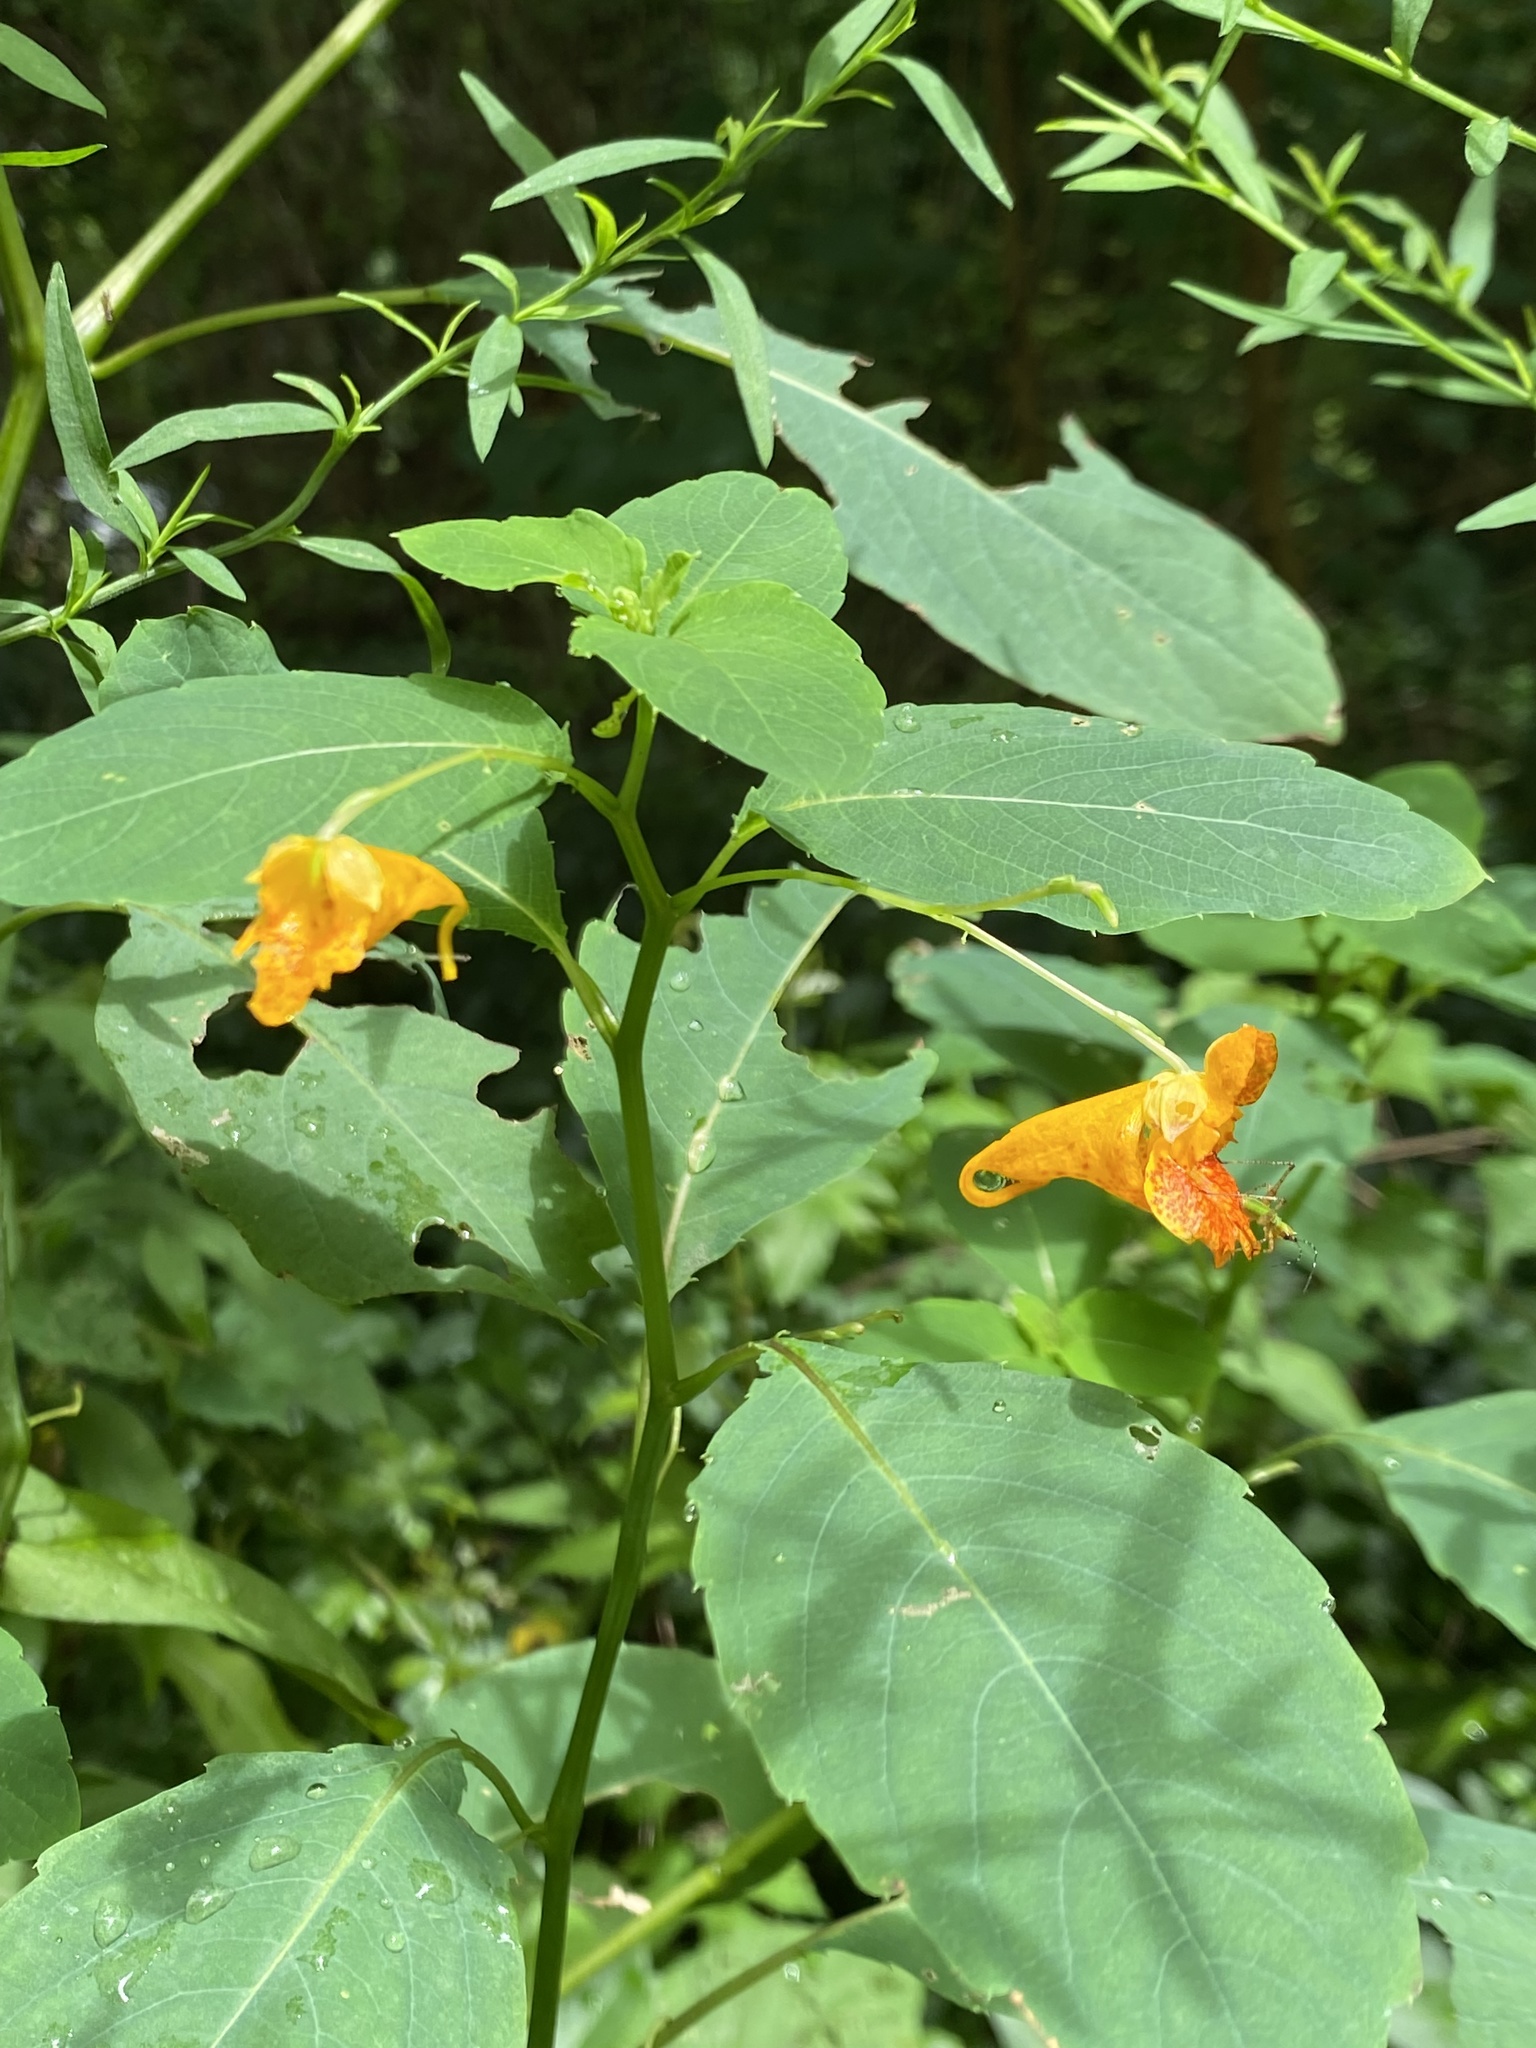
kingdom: Plantae
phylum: Tracheophyta
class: Magnoliopsida
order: Ericales
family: Balsaminaceae
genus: Impatiens
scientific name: Impatiens capensis
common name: Orange balsam
